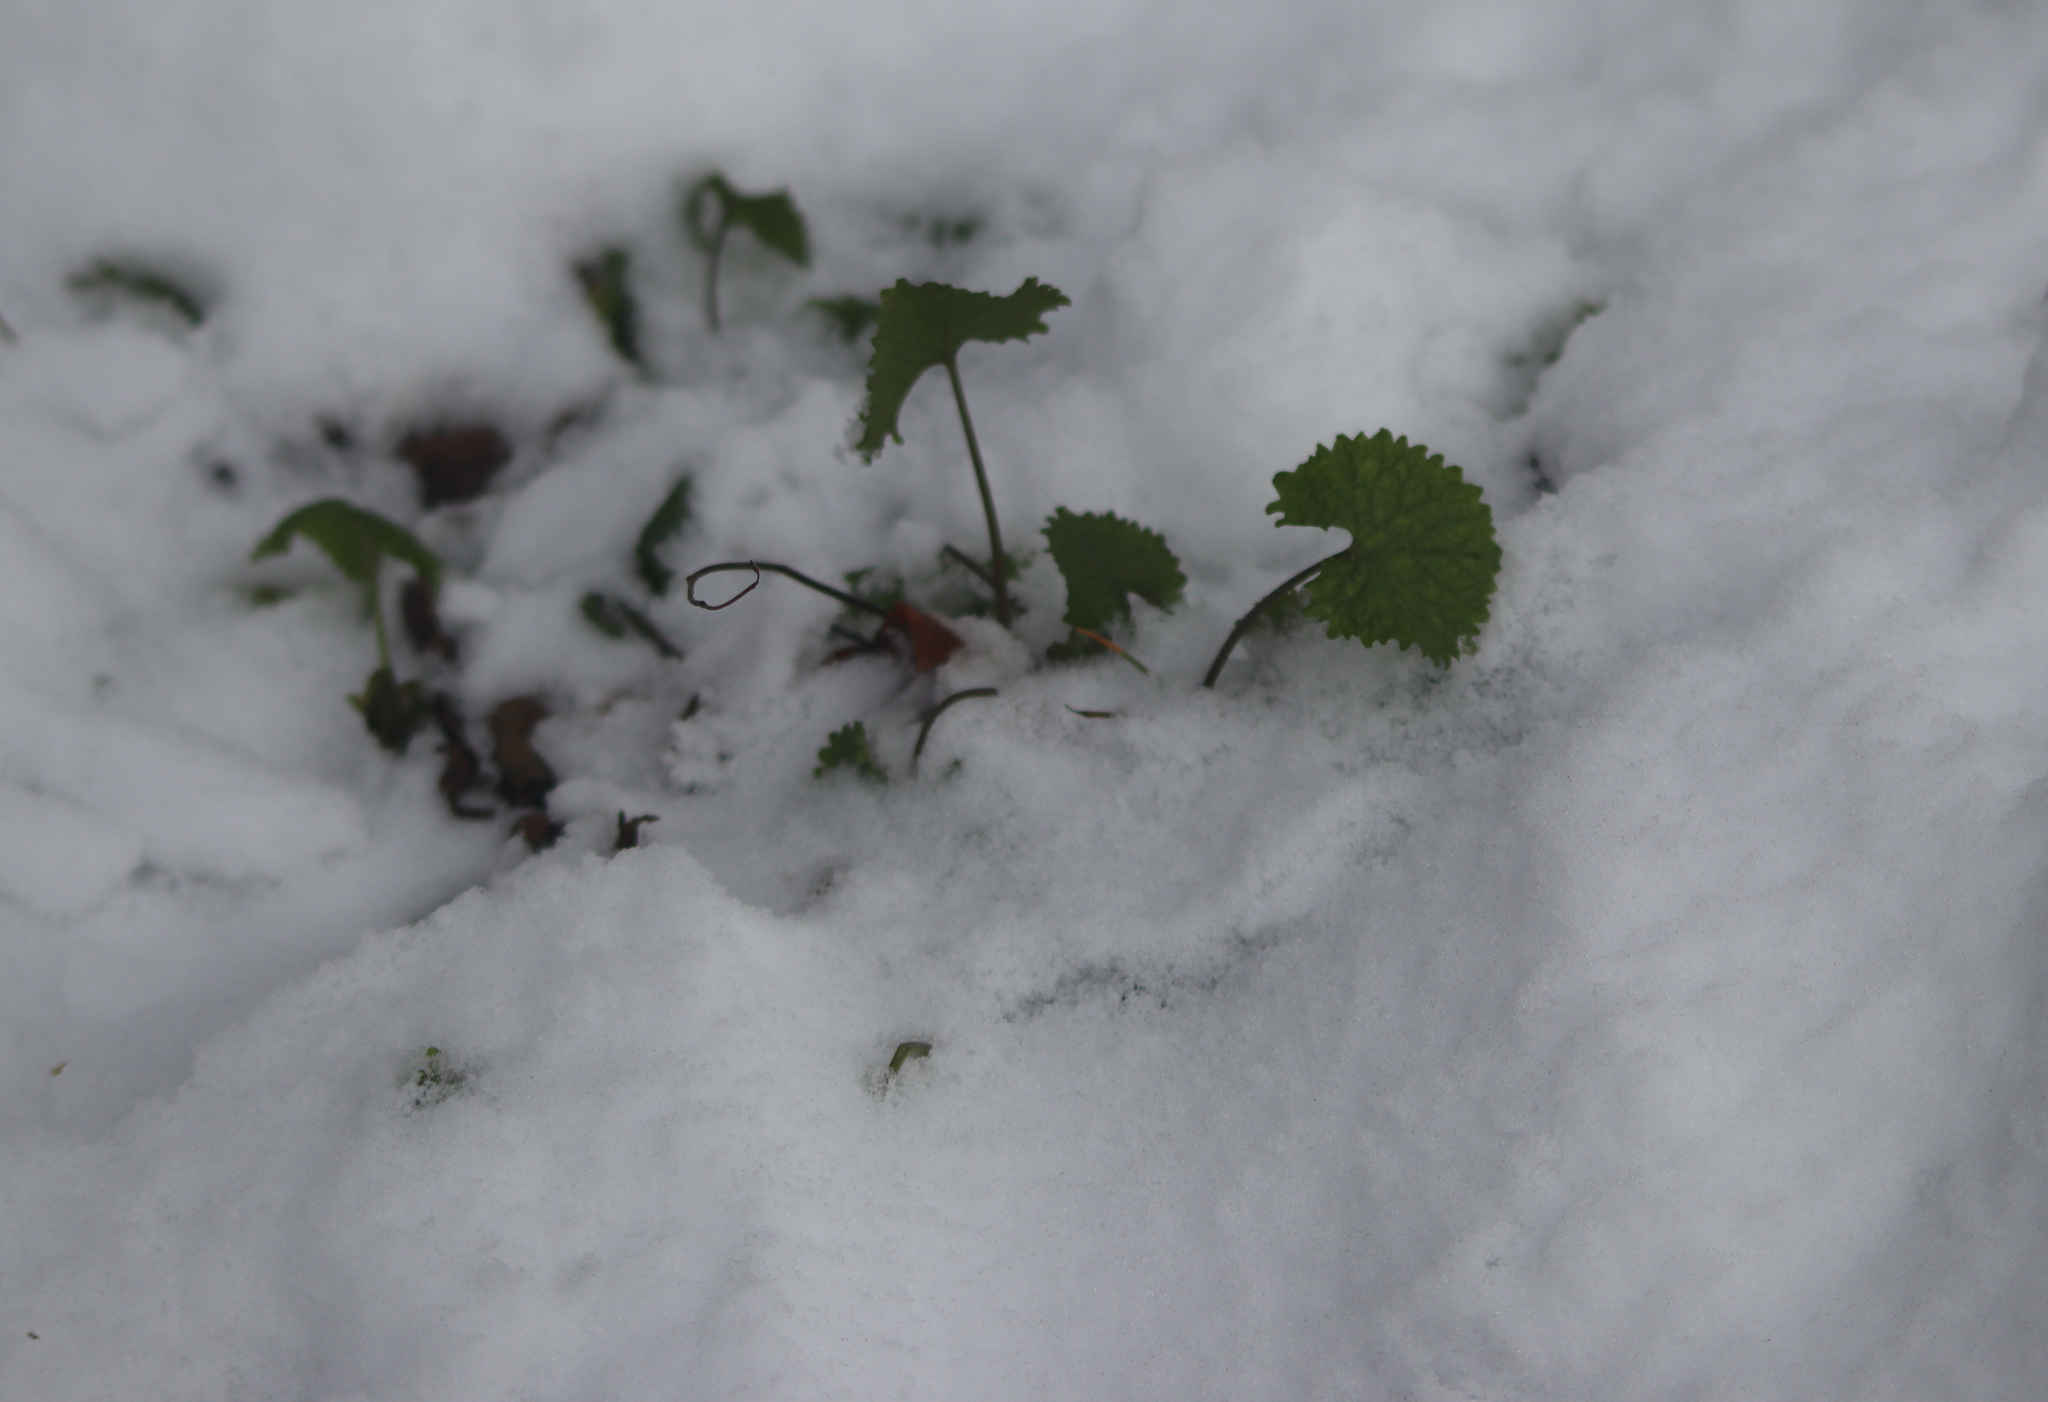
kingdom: Plantae
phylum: Tracheophyta
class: Magnoliopsida
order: Brassicales
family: Brassicaceae
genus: Alliaria
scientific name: Alliaria petiolata
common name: Garlic mustard
